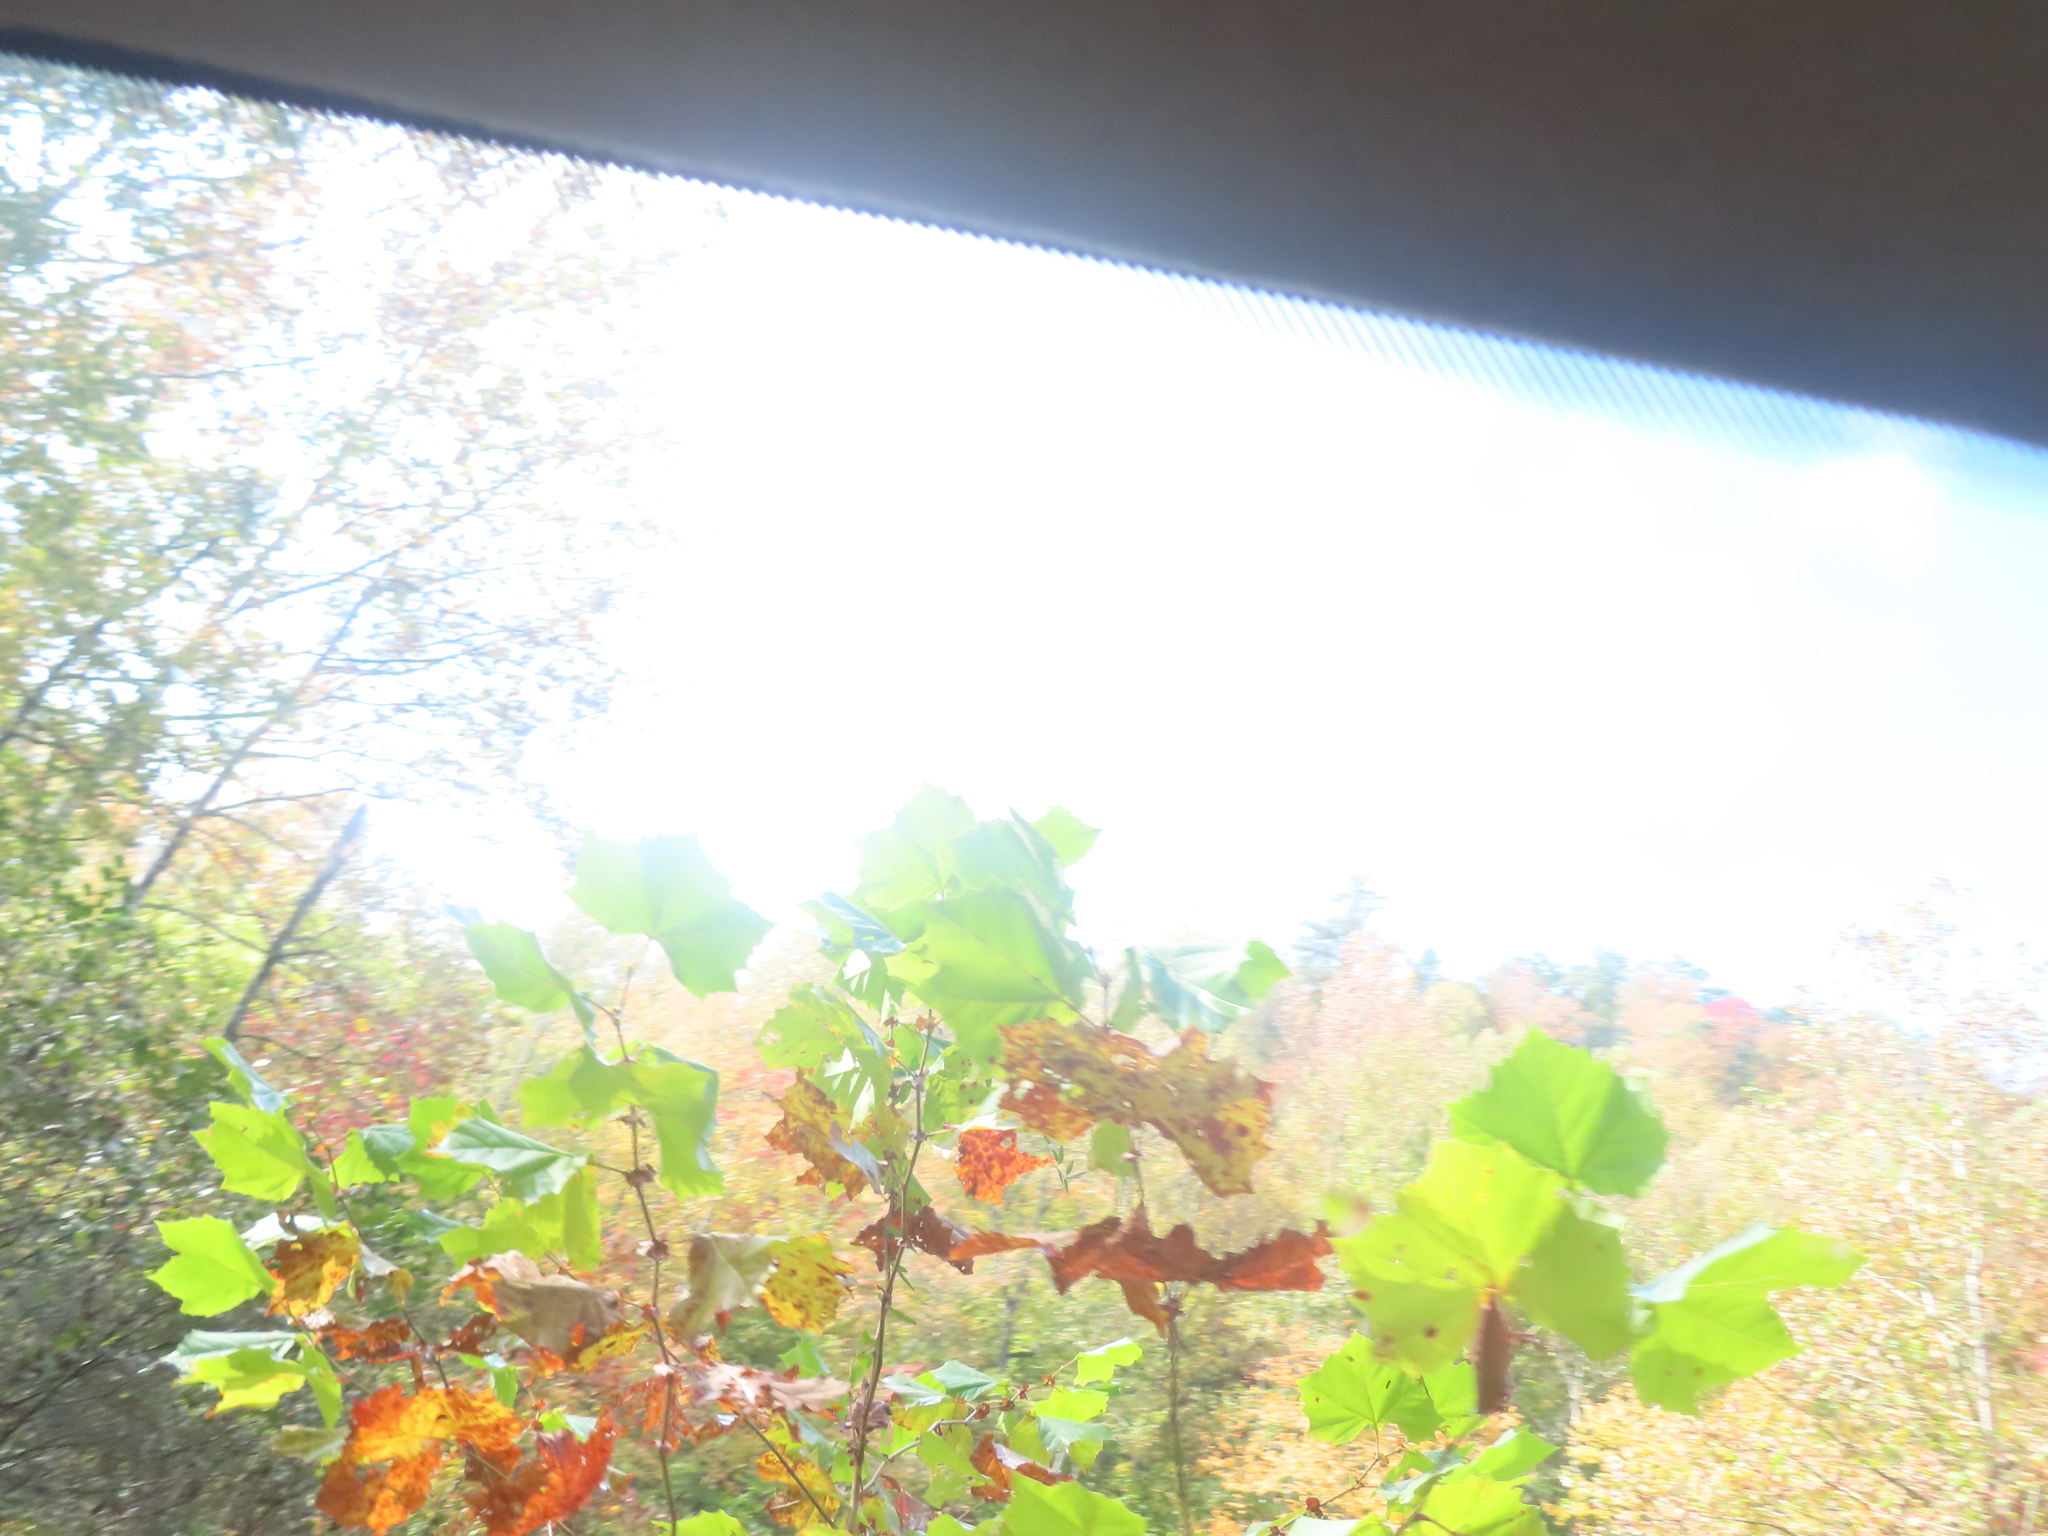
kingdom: Plantae
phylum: Tracheophyta
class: Magnoliopsida
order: Proteales
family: Platanaceae
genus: Platanus
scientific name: Platanus occidentalis
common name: American sycamore
